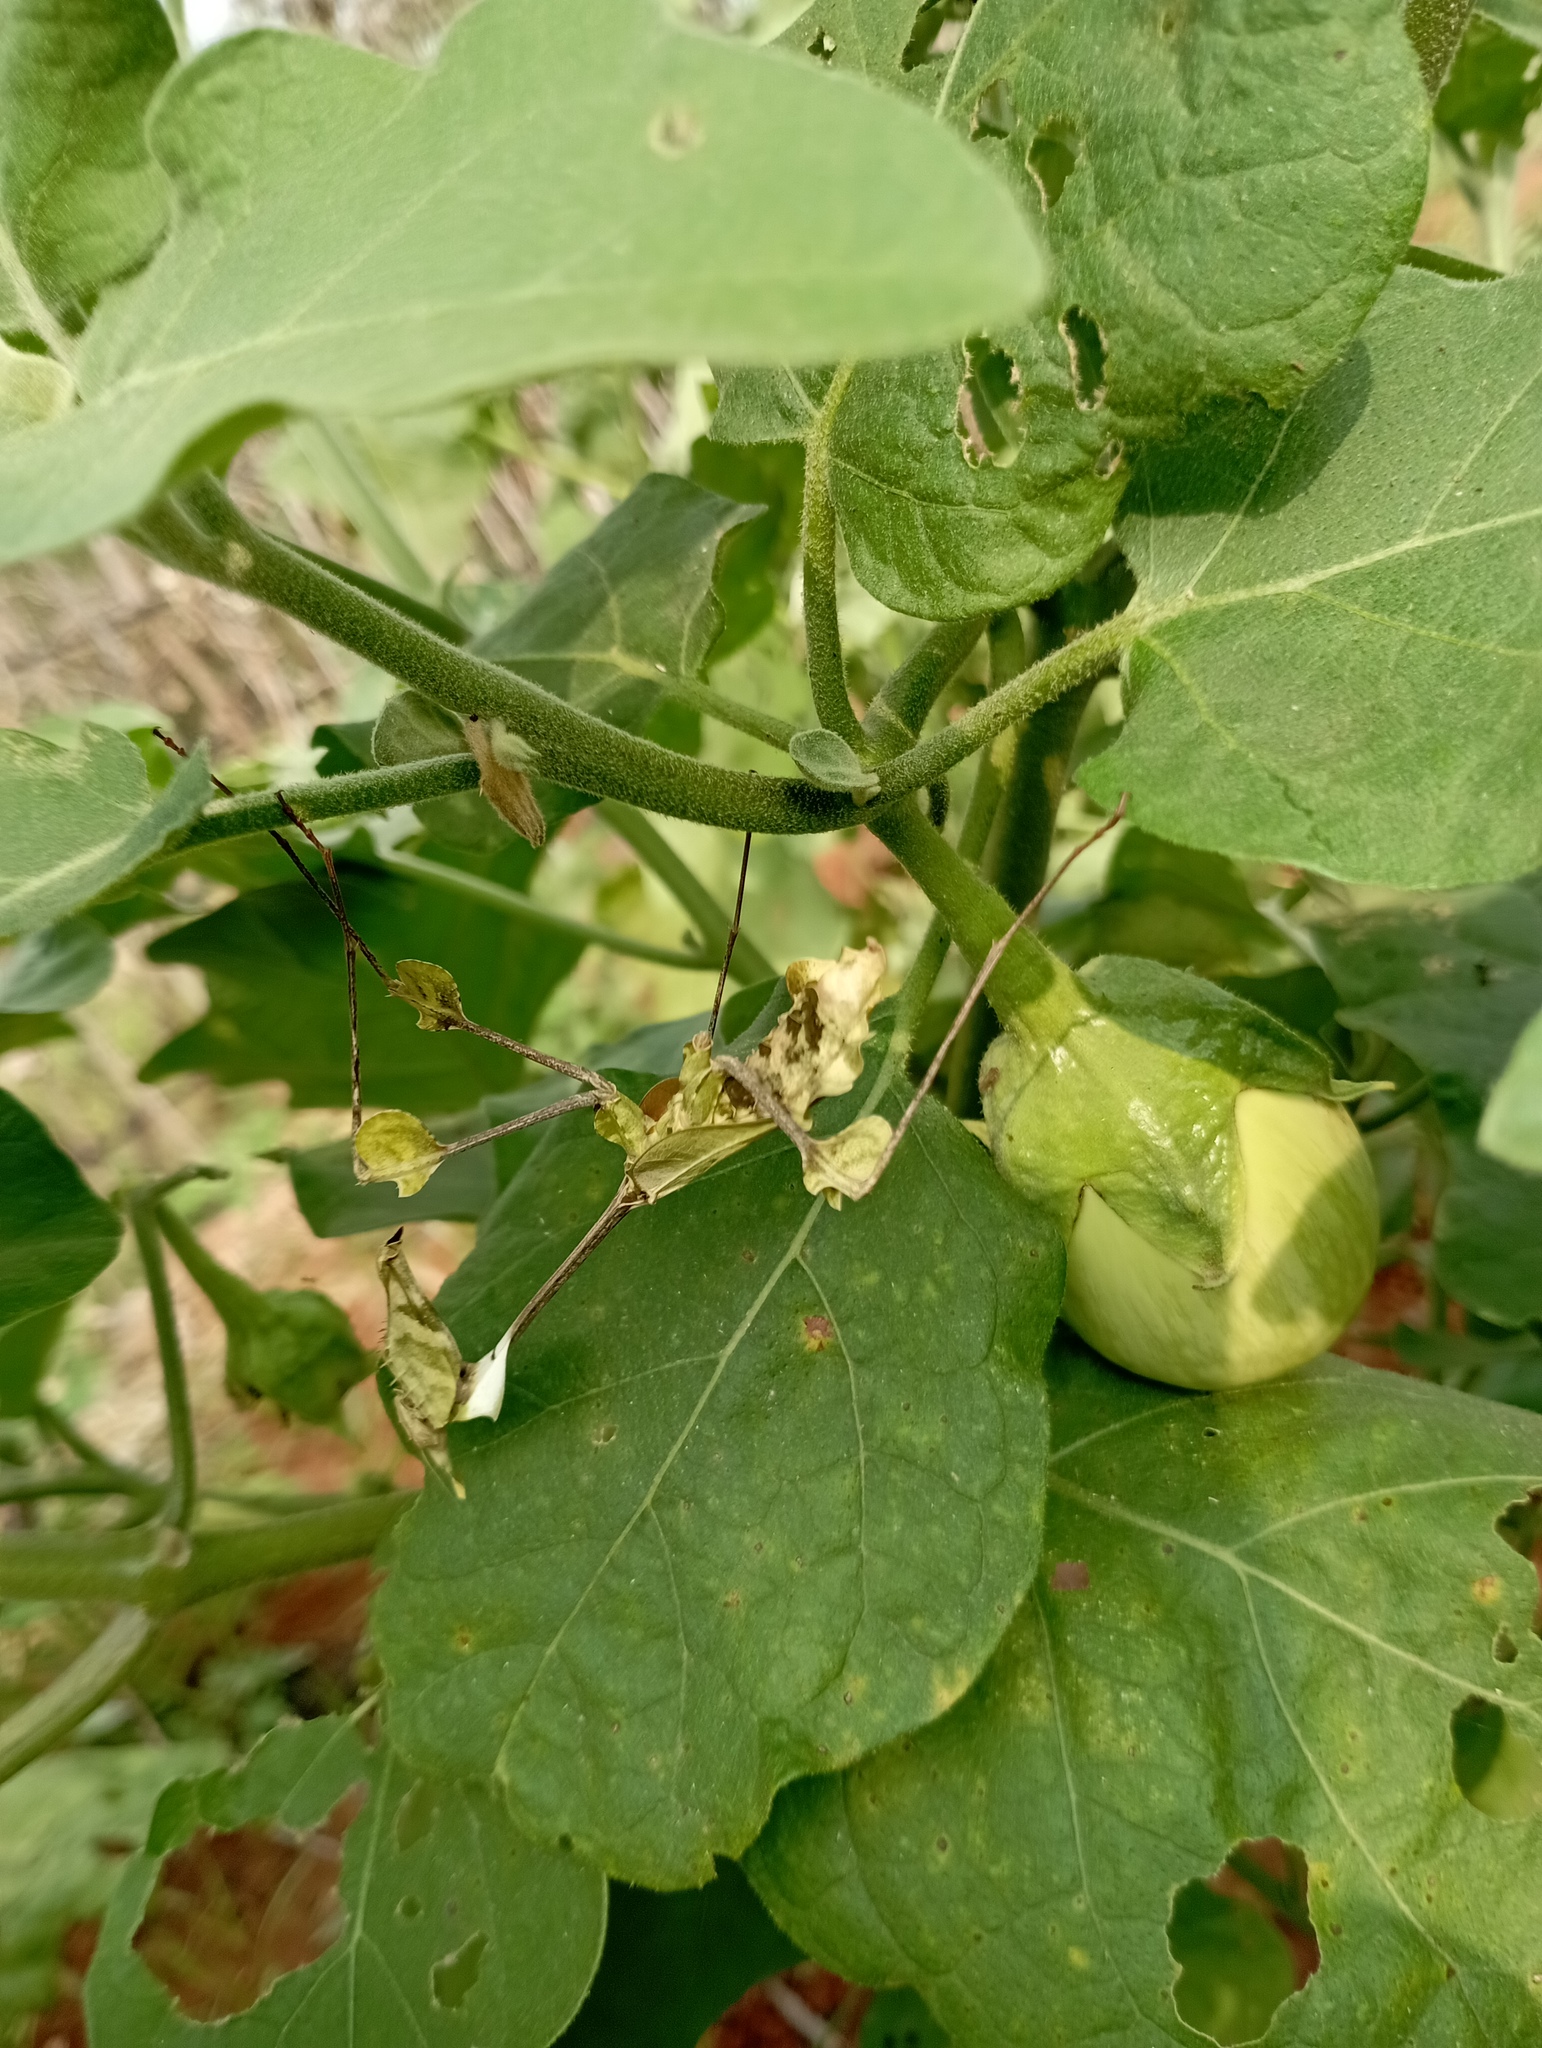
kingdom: Animalia
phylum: Arthropoda
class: Insecta
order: Mantodea
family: Empusidae
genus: Gongylus
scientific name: Gongylus gongylodes
